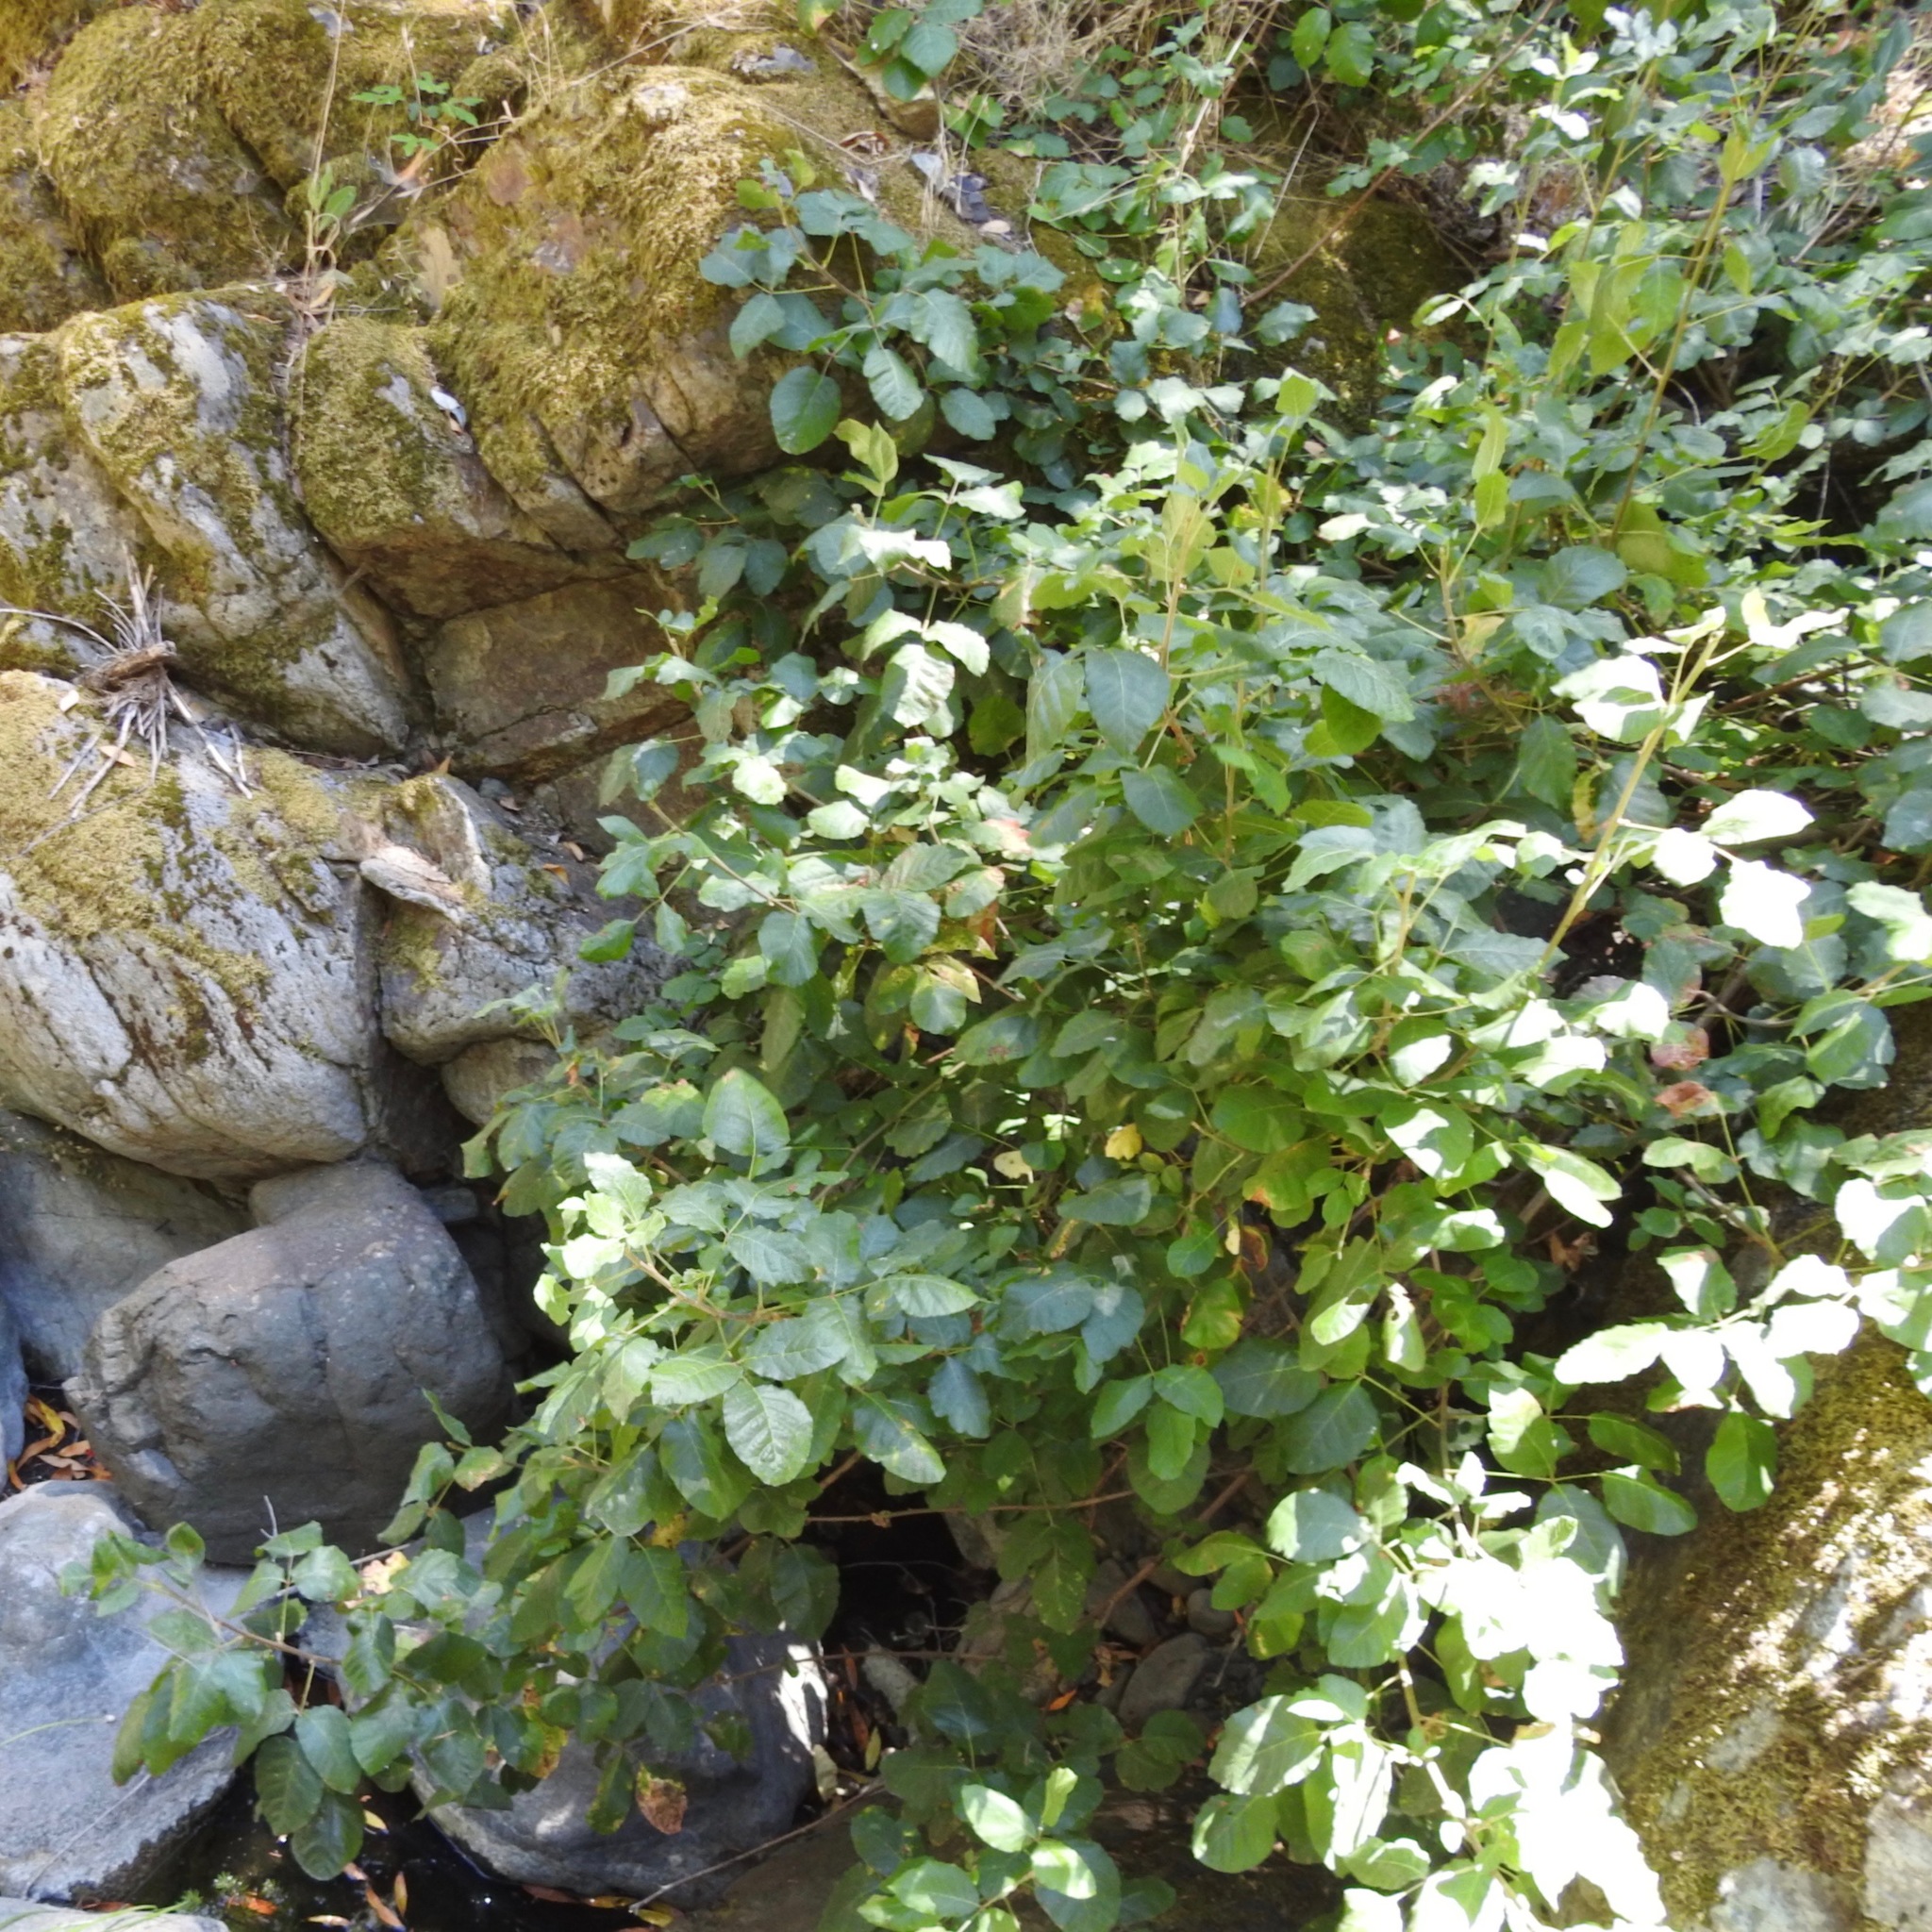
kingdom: Plantae
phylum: Tracheophyta
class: Magnoliopsida
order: Sapindales
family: Anacardiaceae
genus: Toxicodendron
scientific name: Toxicodendron diversilobum
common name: Pacific poison-oak
